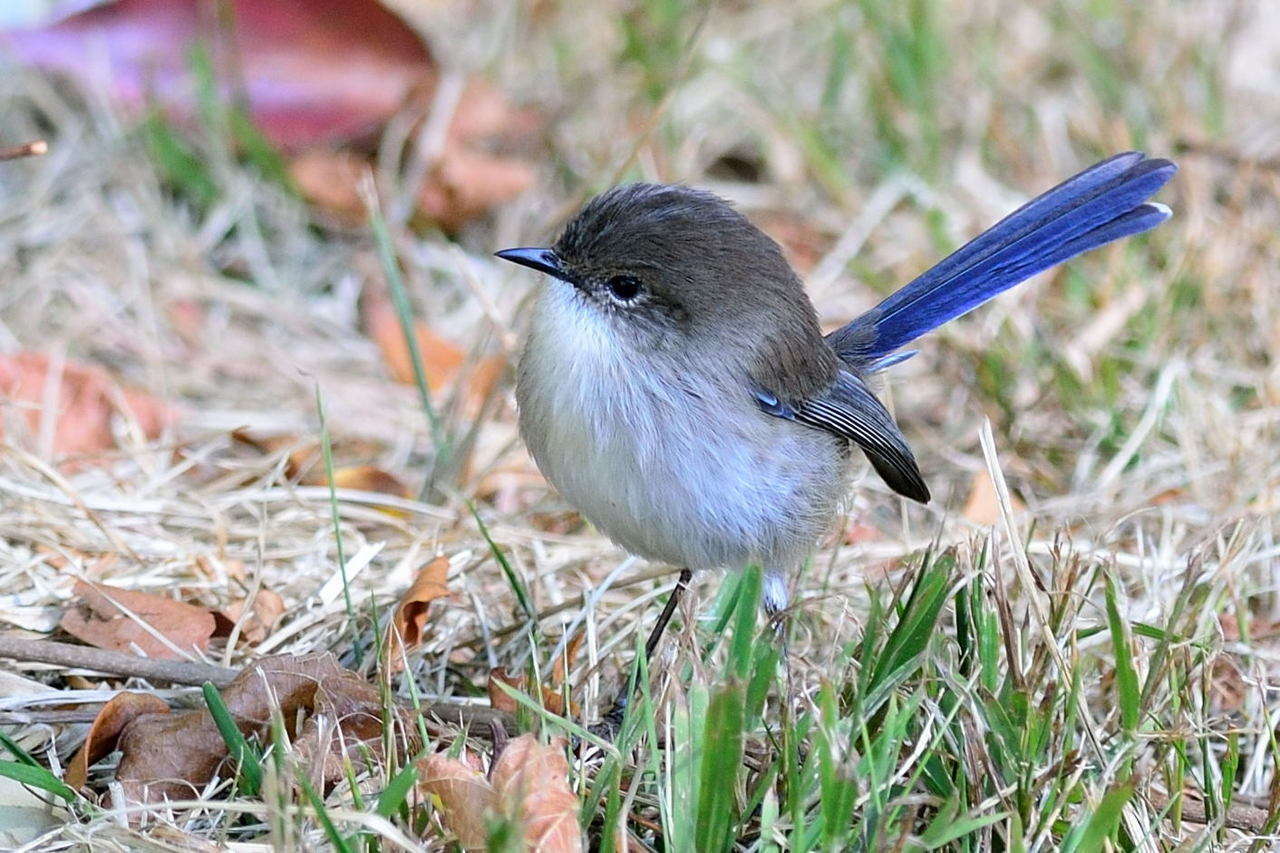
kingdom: Animalia
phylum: Chordata
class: Aves
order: Passeriformes
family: Maluridae
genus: Malurus
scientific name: Malurus cyaneus
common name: Superb fairywren
